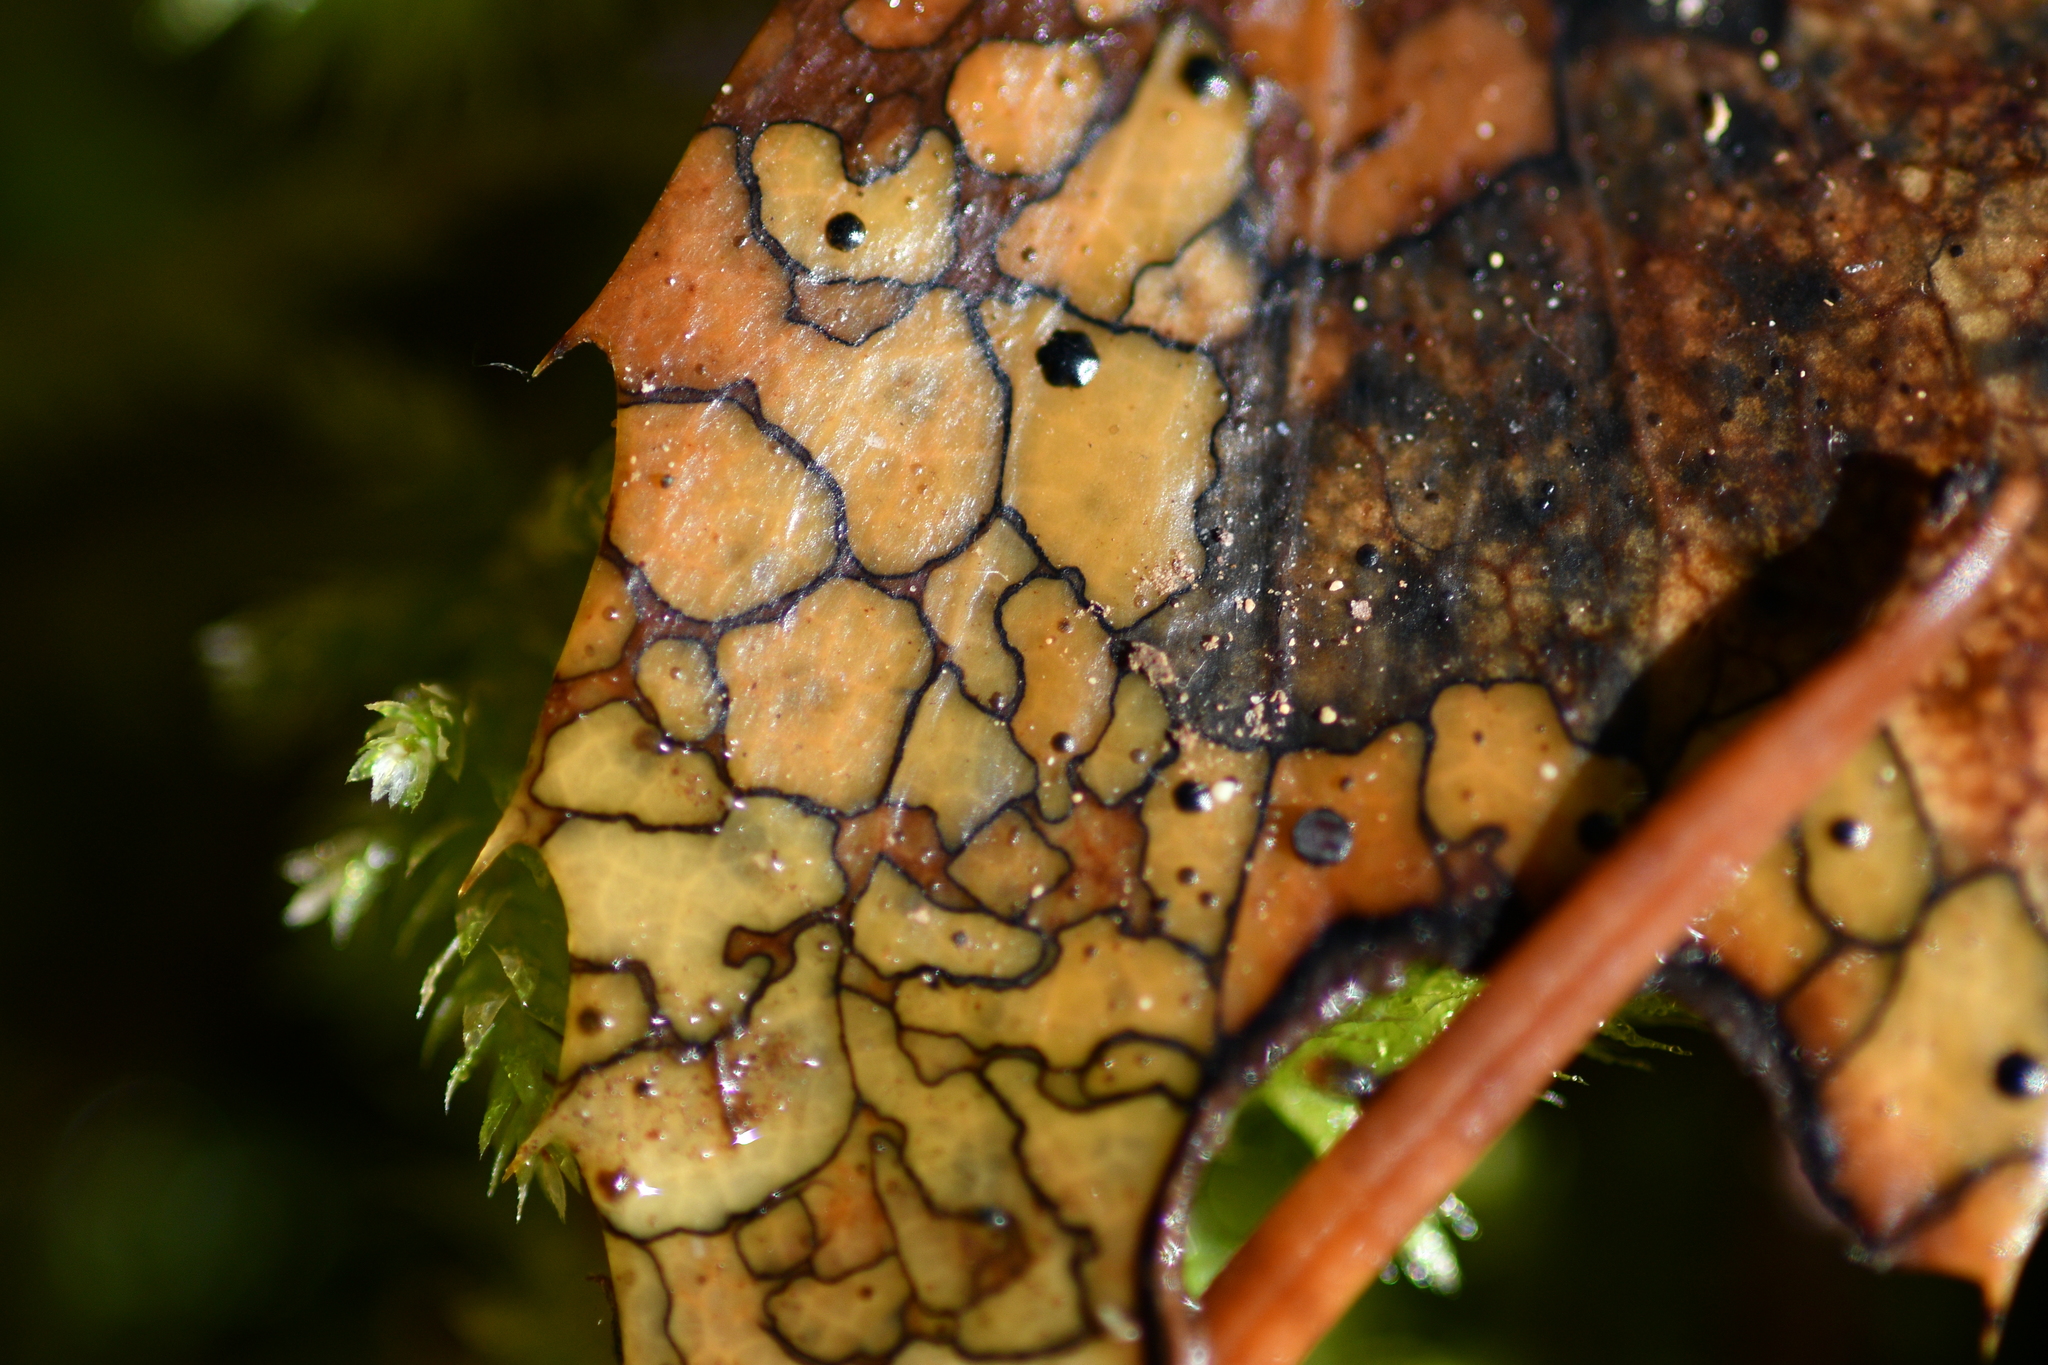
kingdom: Fungi
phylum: Ascomycota
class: Leotiomycetes
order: Rhytismatales
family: Rhytismataceae
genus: Coccomyces
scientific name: Coccomyces dentatus
